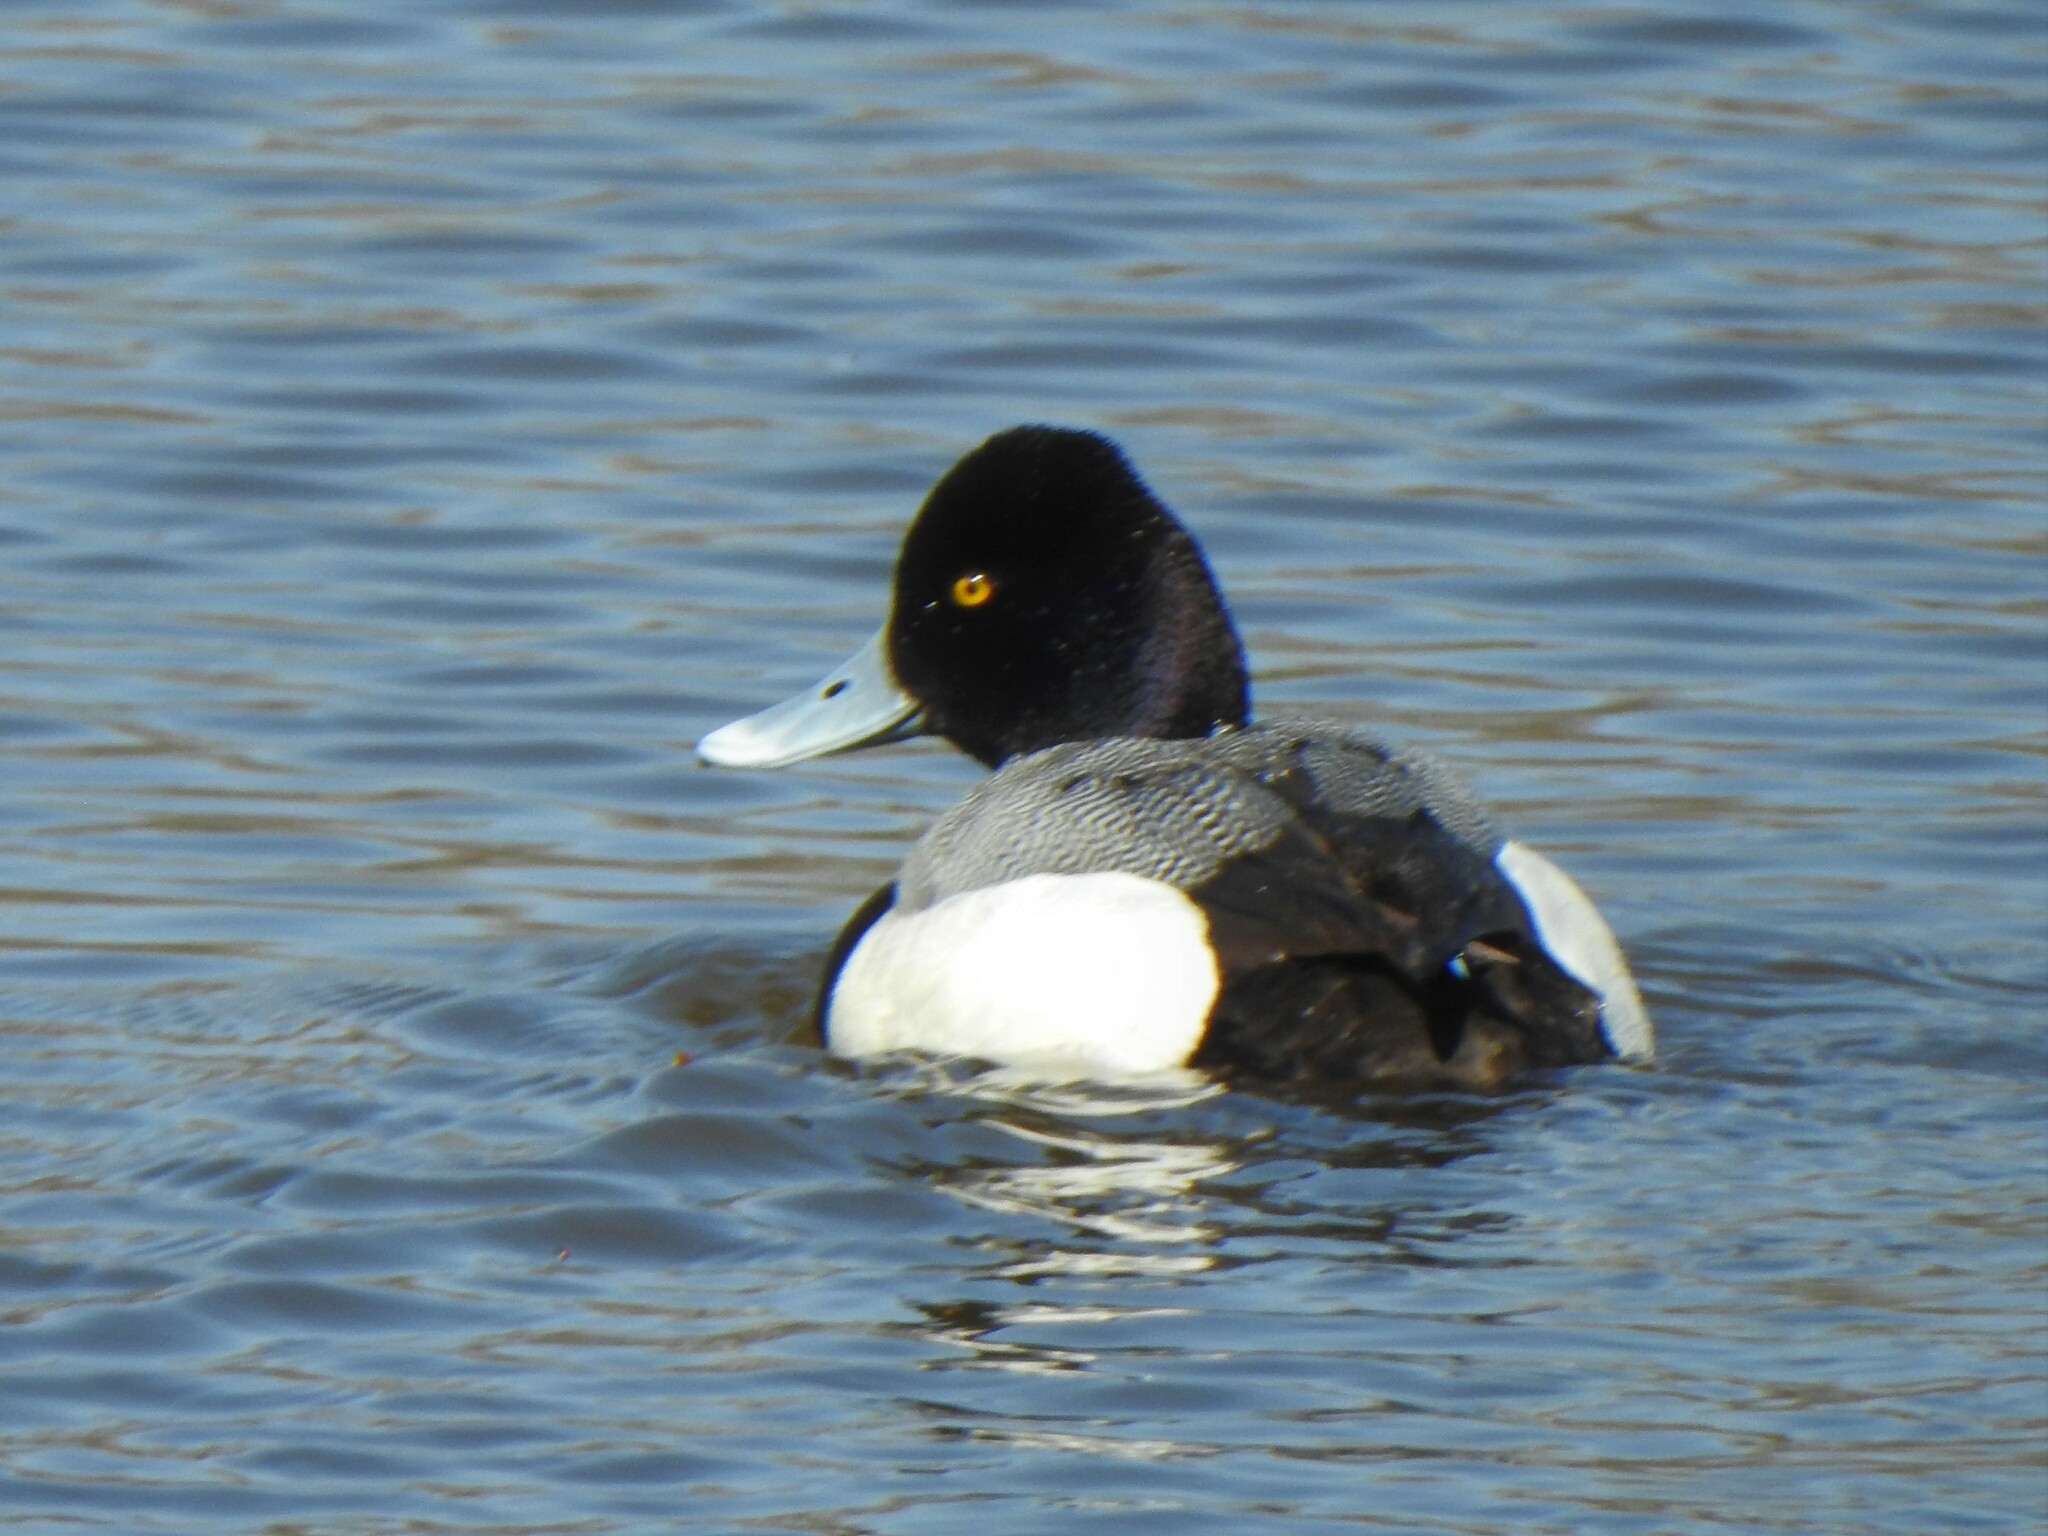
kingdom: Animalia
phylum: Chordata
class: Aves
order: Anseriformes
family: Anatidae
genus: Aythya
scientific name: Aythya affinis
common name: Lesser scaup
